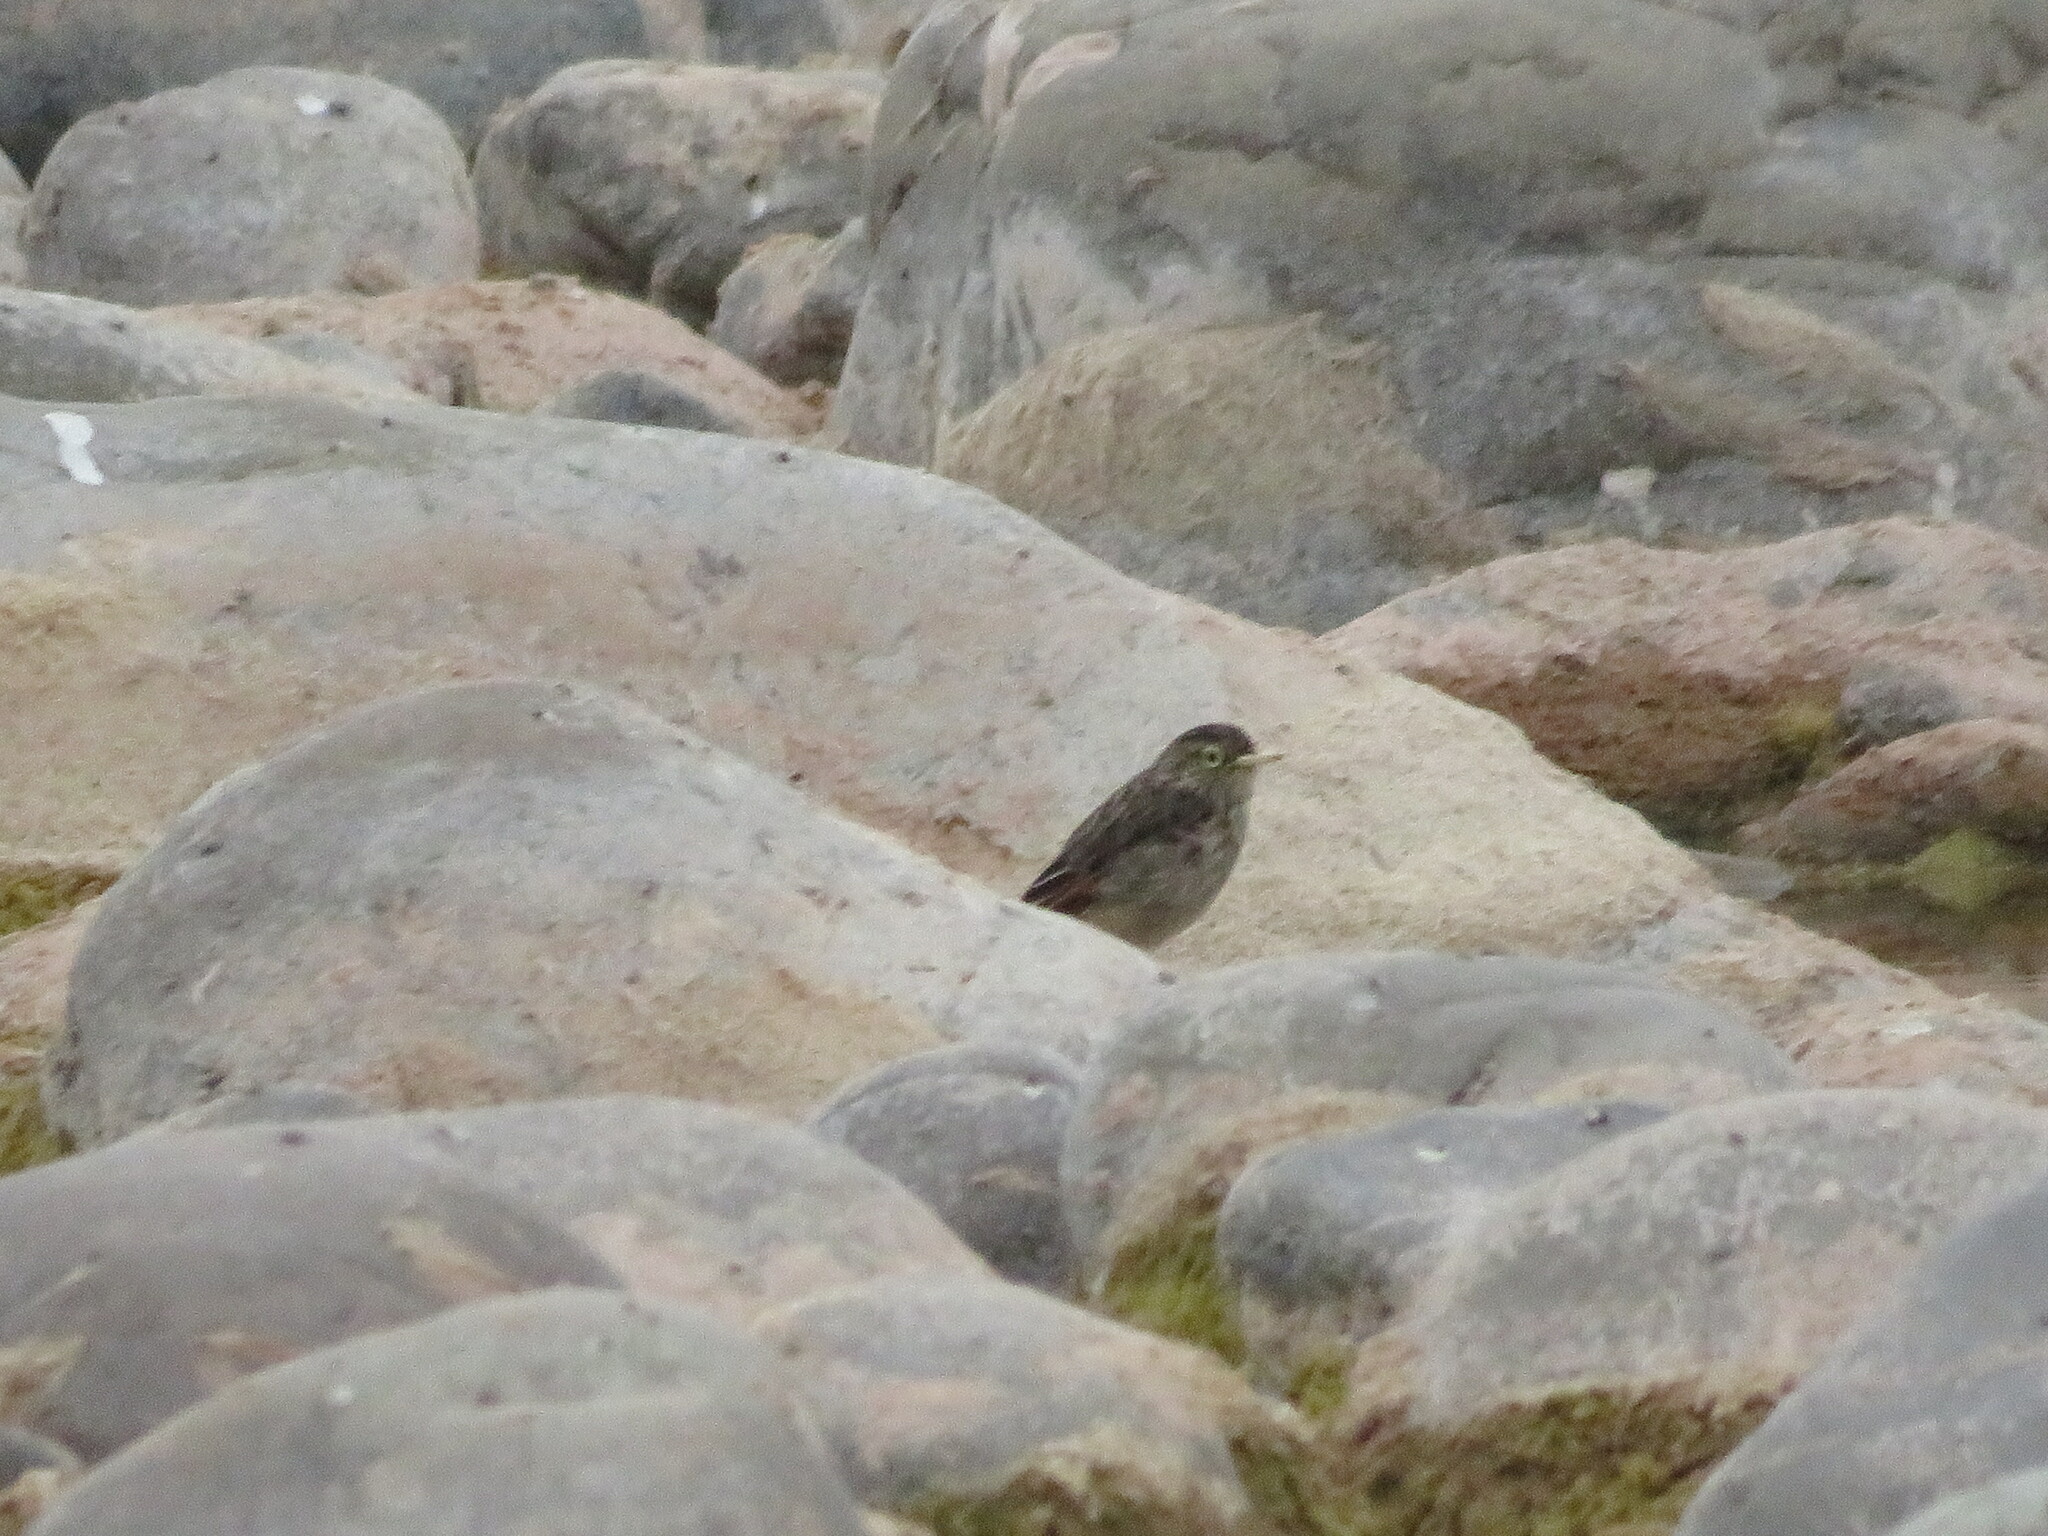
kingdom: Animalia
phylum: Chordata
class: Aves
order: Passeriformes
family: Tyrannidae
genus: Hymenops
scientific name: Hymenops perspicillatus
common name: Spectacled tyrant
